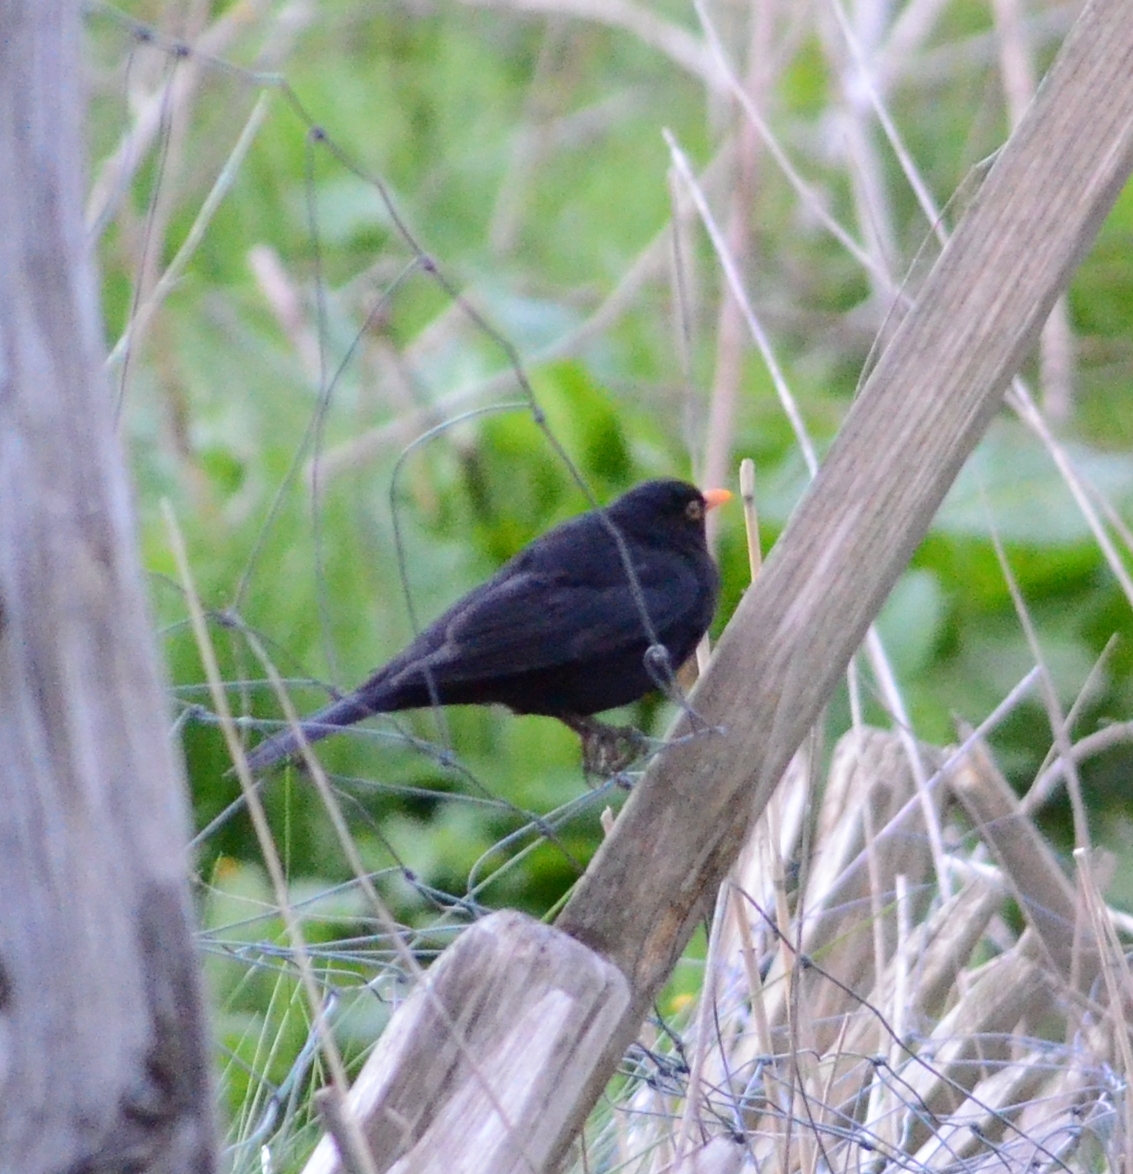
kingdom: Animalia
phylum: Chordata
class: Aves
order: Passeriformes
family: Turdidae
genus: Turdus
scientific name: Turdus merula
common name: Common blackbird
